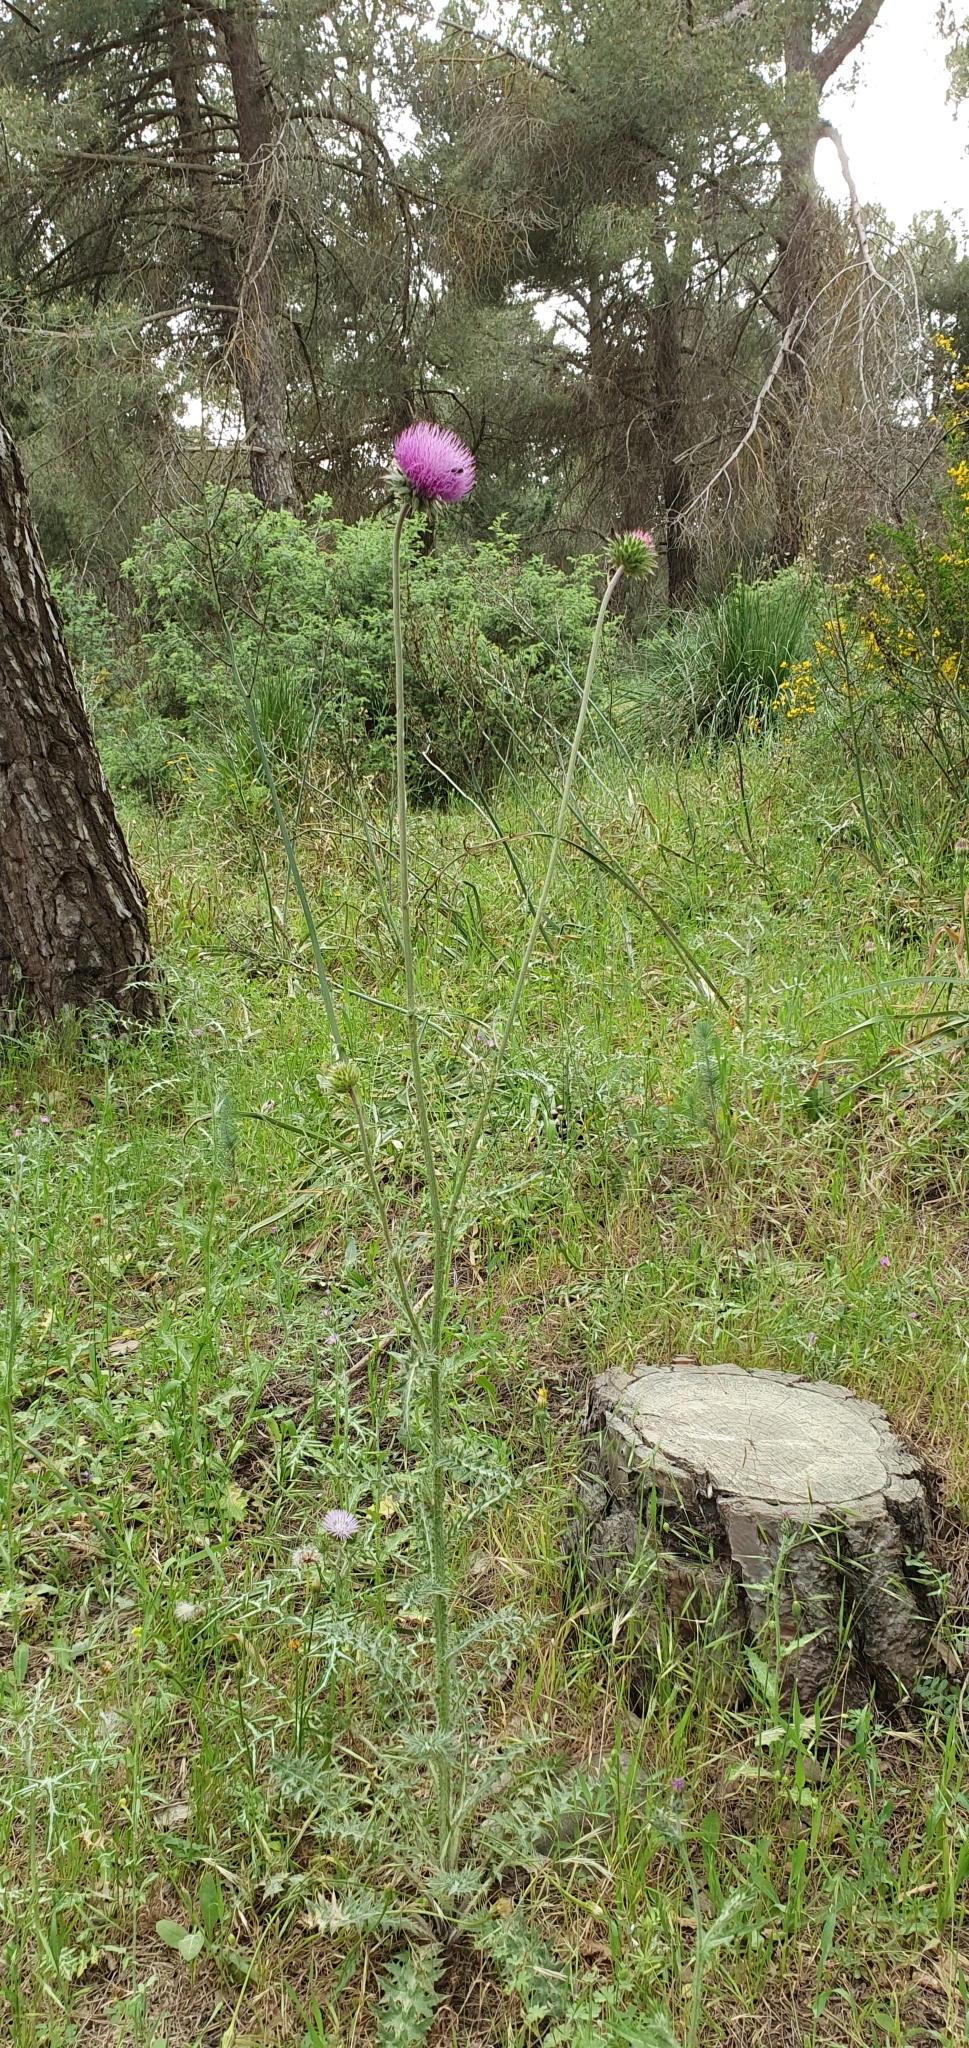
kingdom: Plantae
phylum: Tracheophyta
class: Magnoliopsida
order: Asterales
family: Asteraceae
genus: Carduus
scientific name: Carduus macrocephalus
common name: Giant thistle
